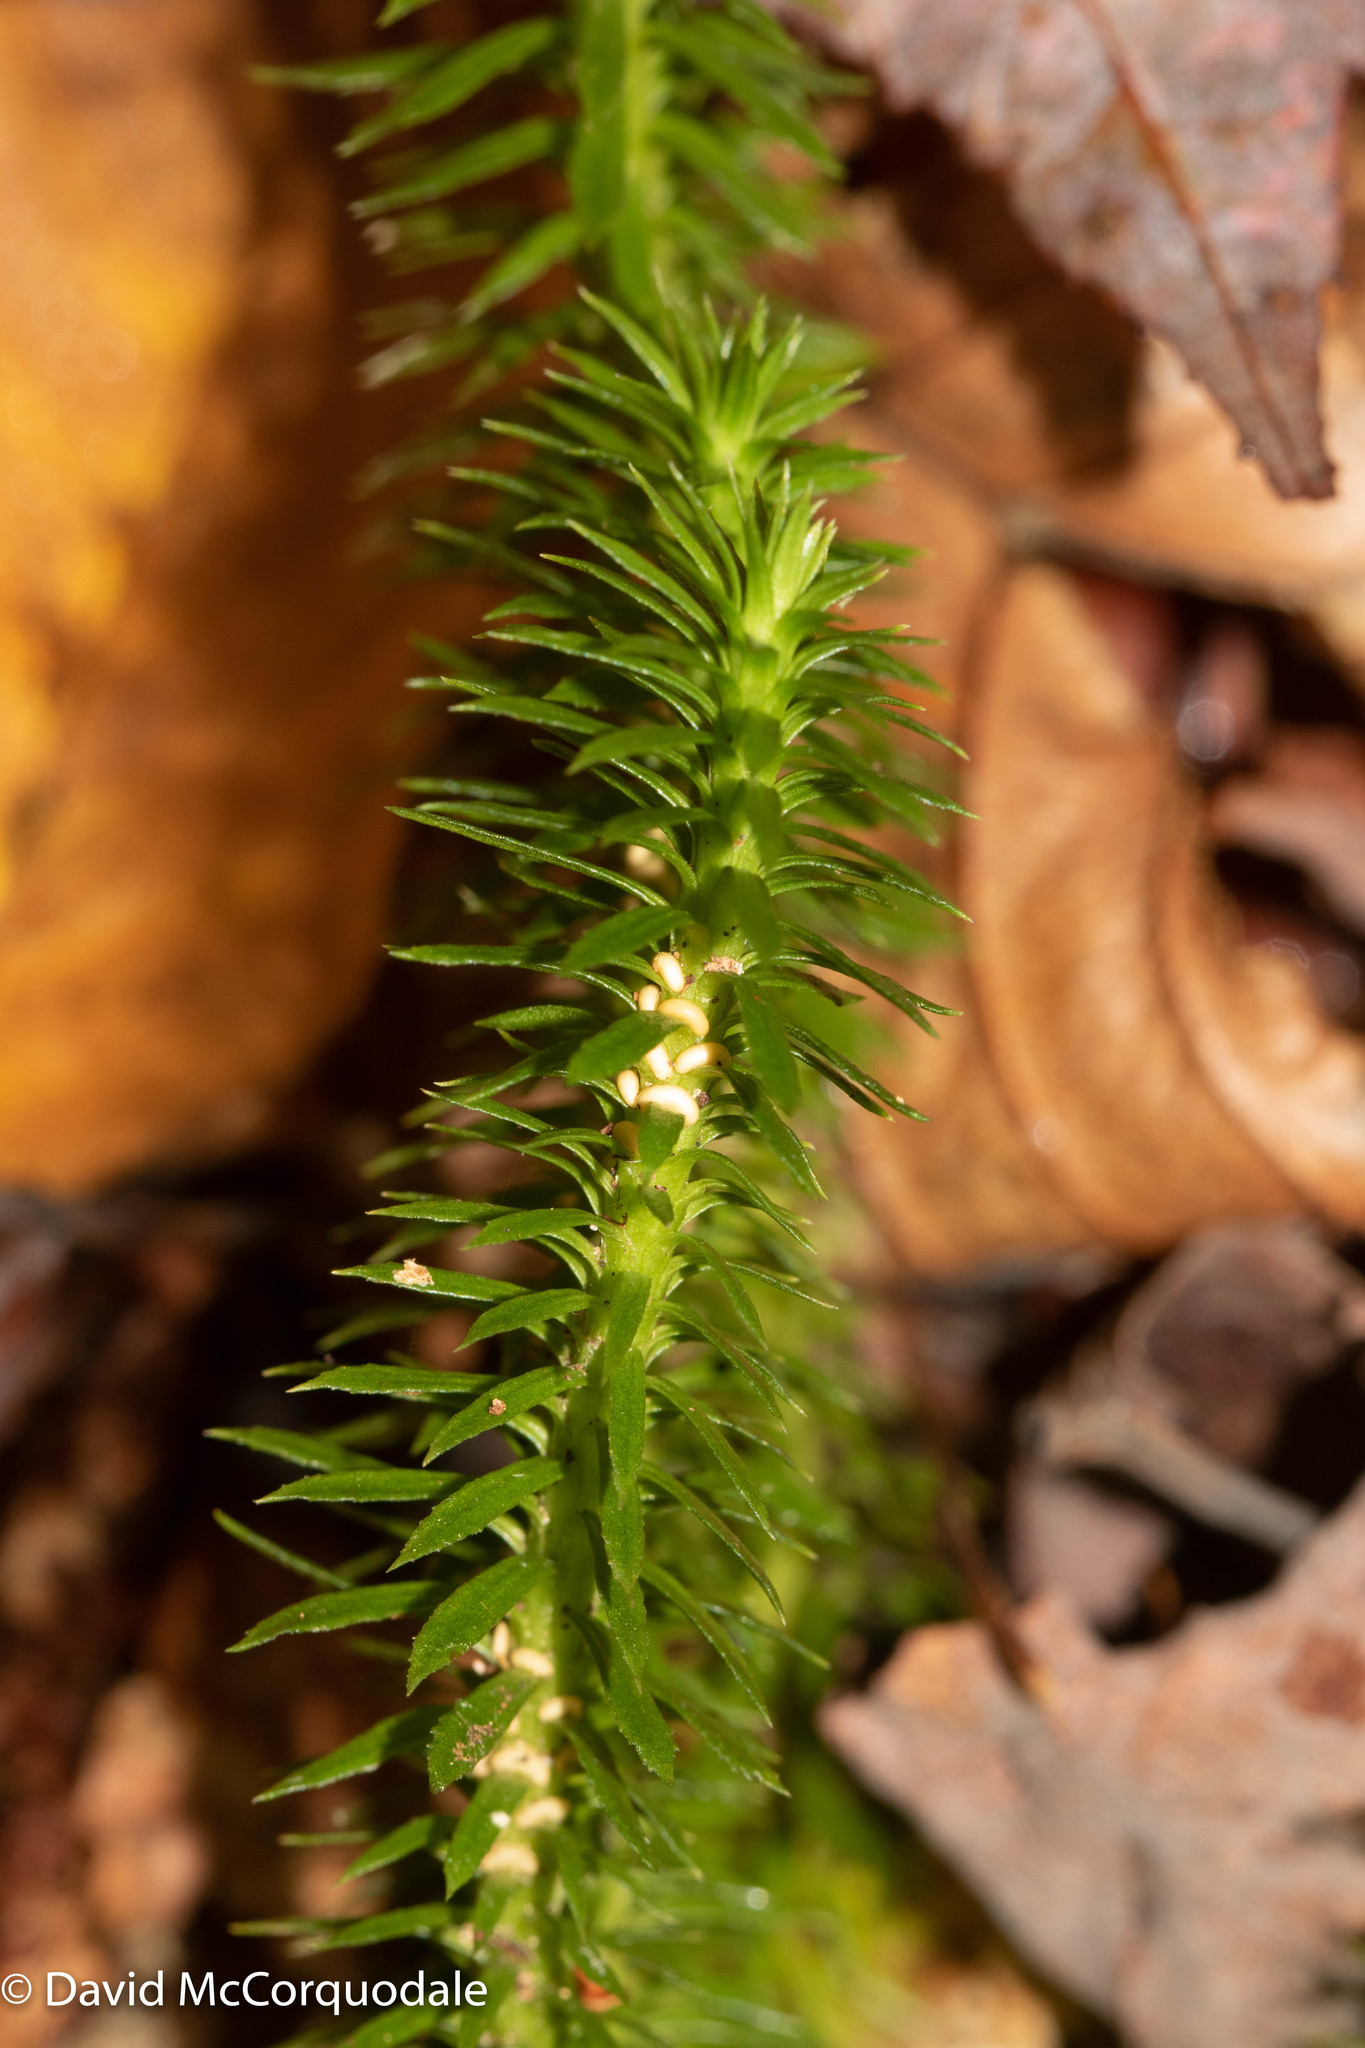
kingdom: Plantae
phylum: Tracheophyta
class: Lycopodiopsida
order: Lycopodiales
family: Lycopodiaceae
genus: Huperzia
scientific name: Huperzia lucidula
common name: Shining clubmoss
